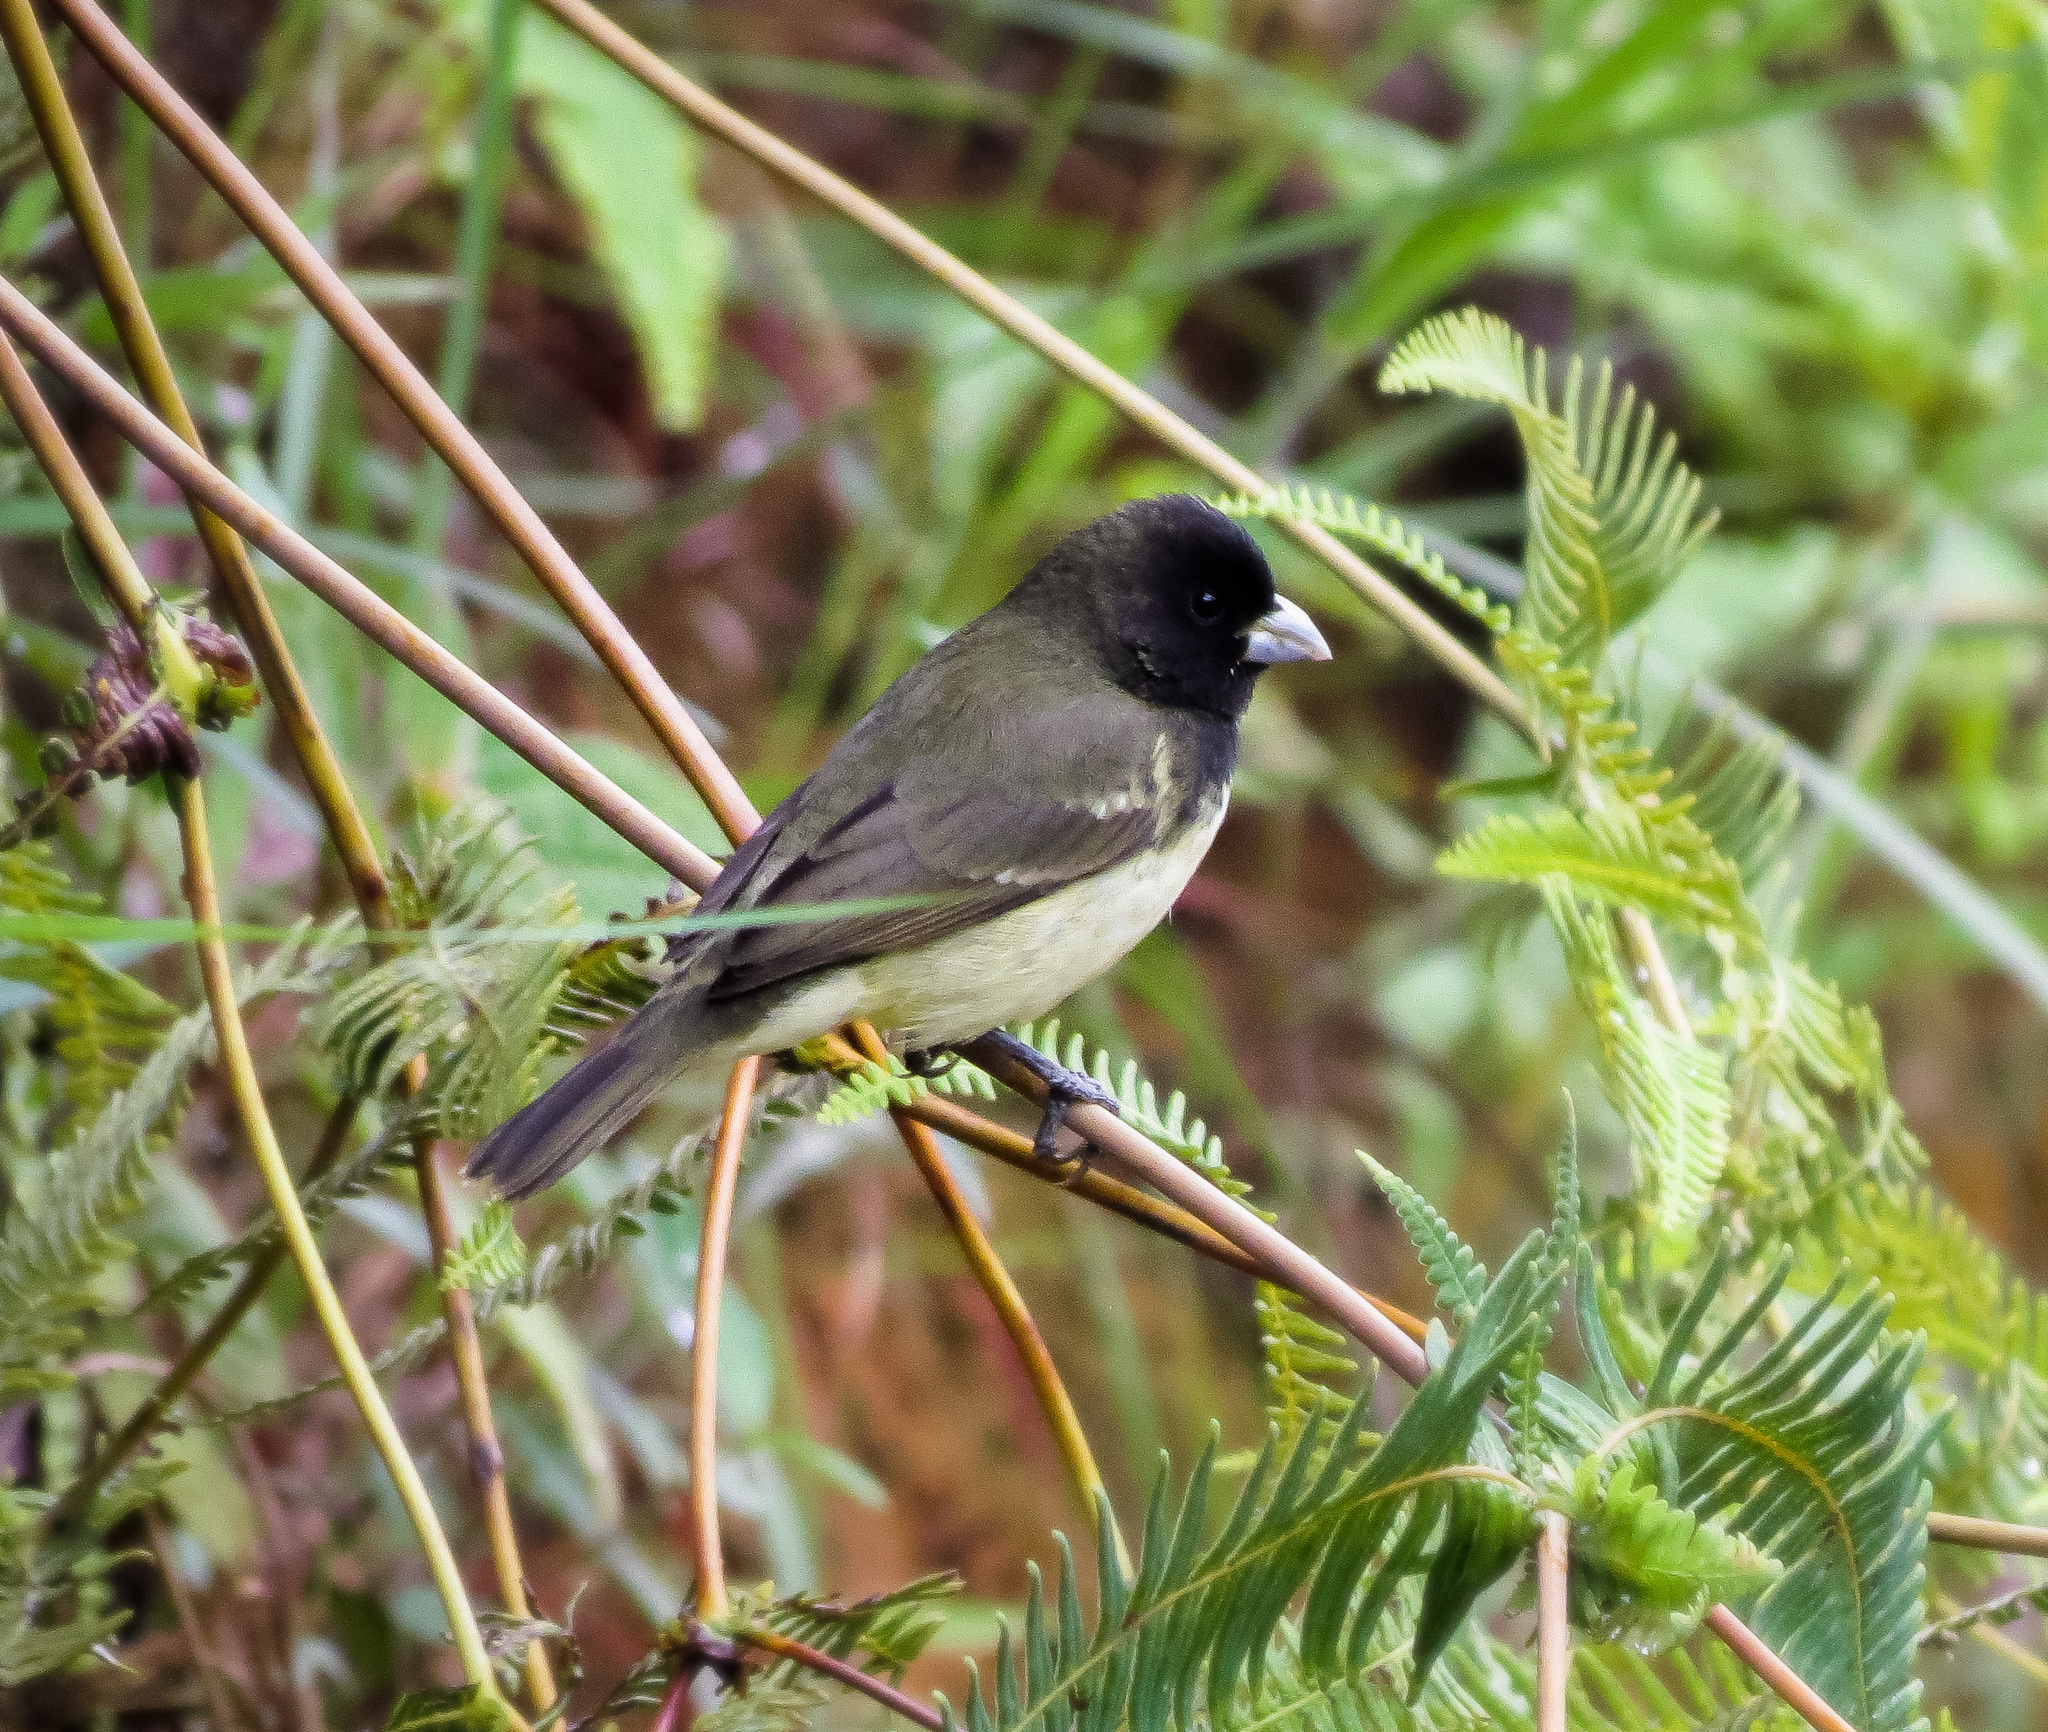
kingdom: Animalia
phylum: Chordata
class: Aves
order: Passeriformes
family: Thraupidae
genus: Sporophila
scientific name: Sporophila nigricollis
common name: Yellow-bellied seedeater
